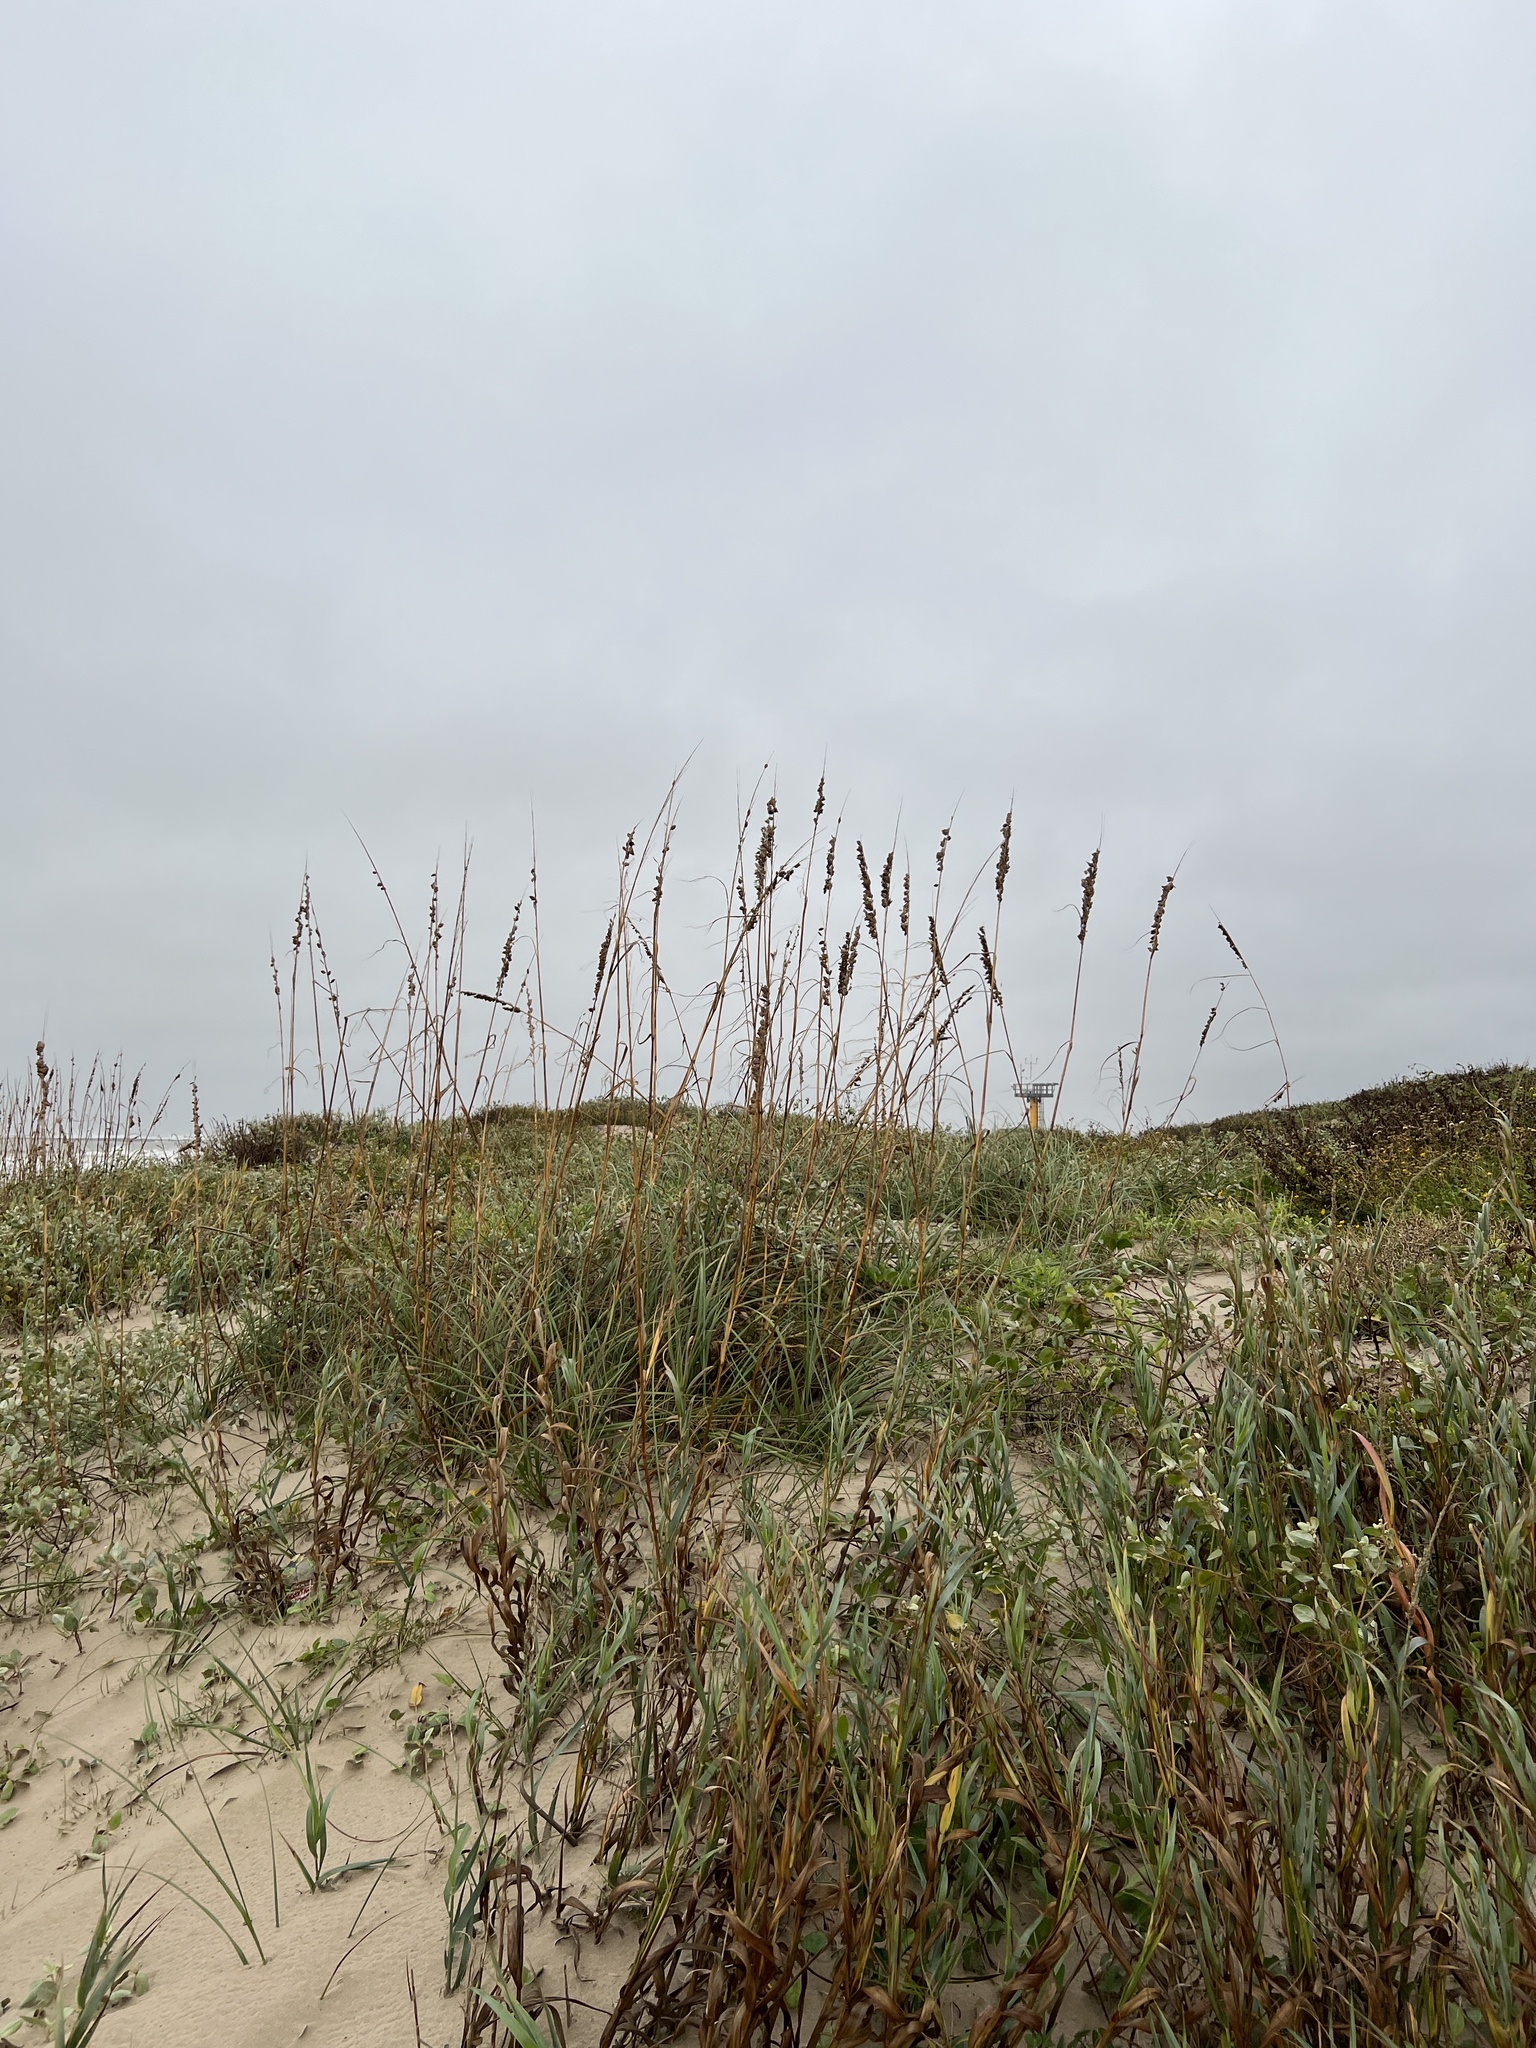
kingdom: Plantae
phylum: Tracheophyta
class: Liliopsida
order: Poales
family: Poaceae
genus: Uniola
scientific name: Uniola paniculata
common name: Seaside-oats
